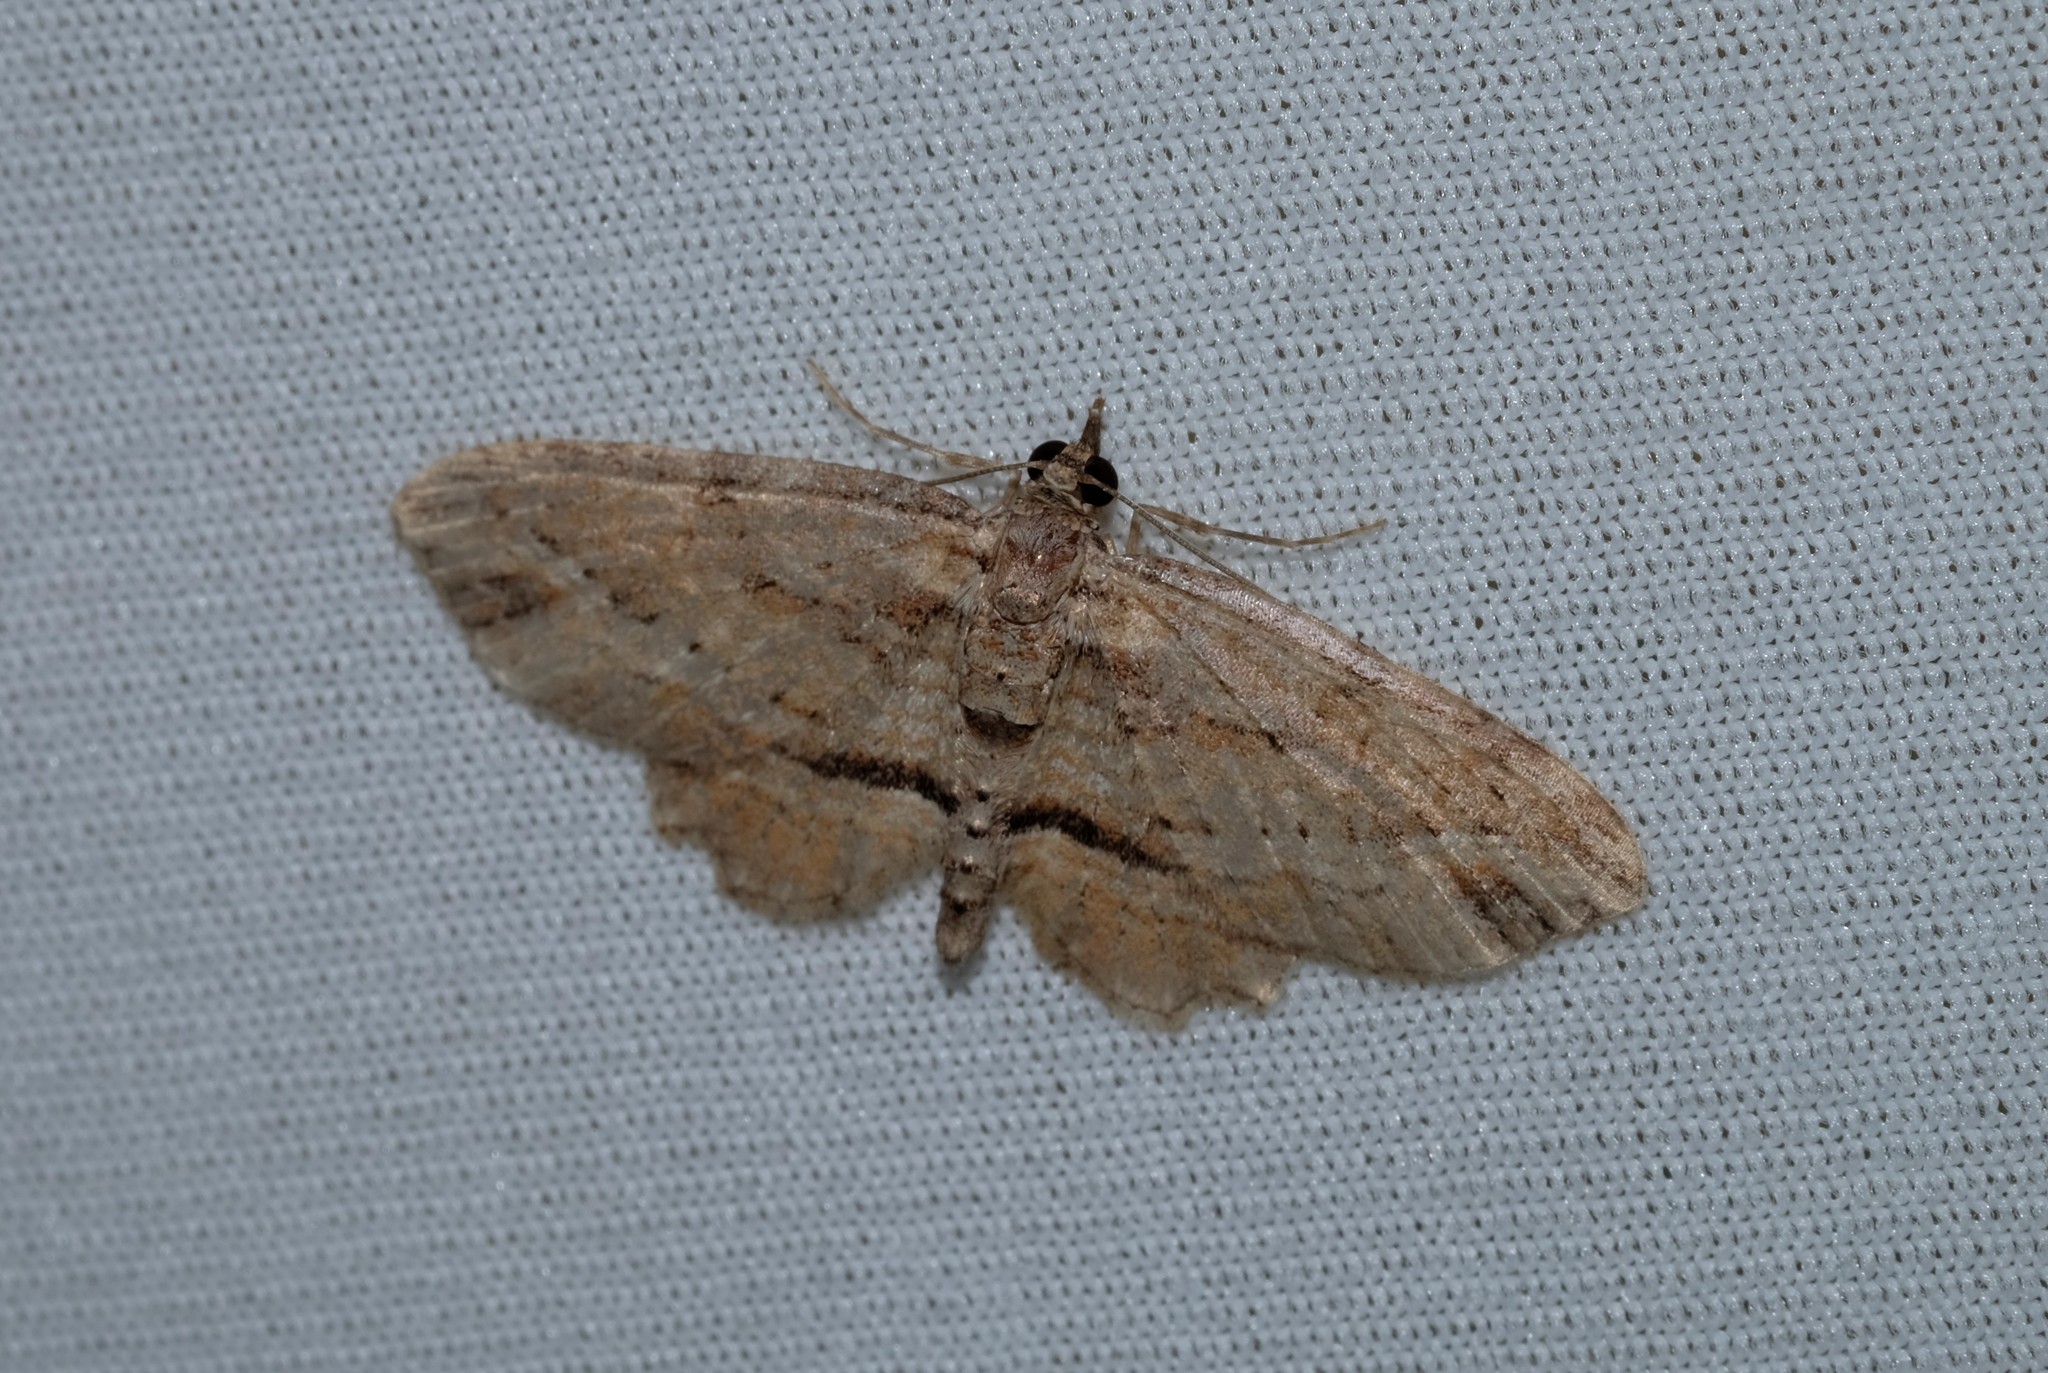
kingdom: Animalia
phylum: Arthropoda
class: Insecta
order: Lepidoptera
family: Geometridae
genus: Chloroclystis
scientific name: Chloroclystis filata
